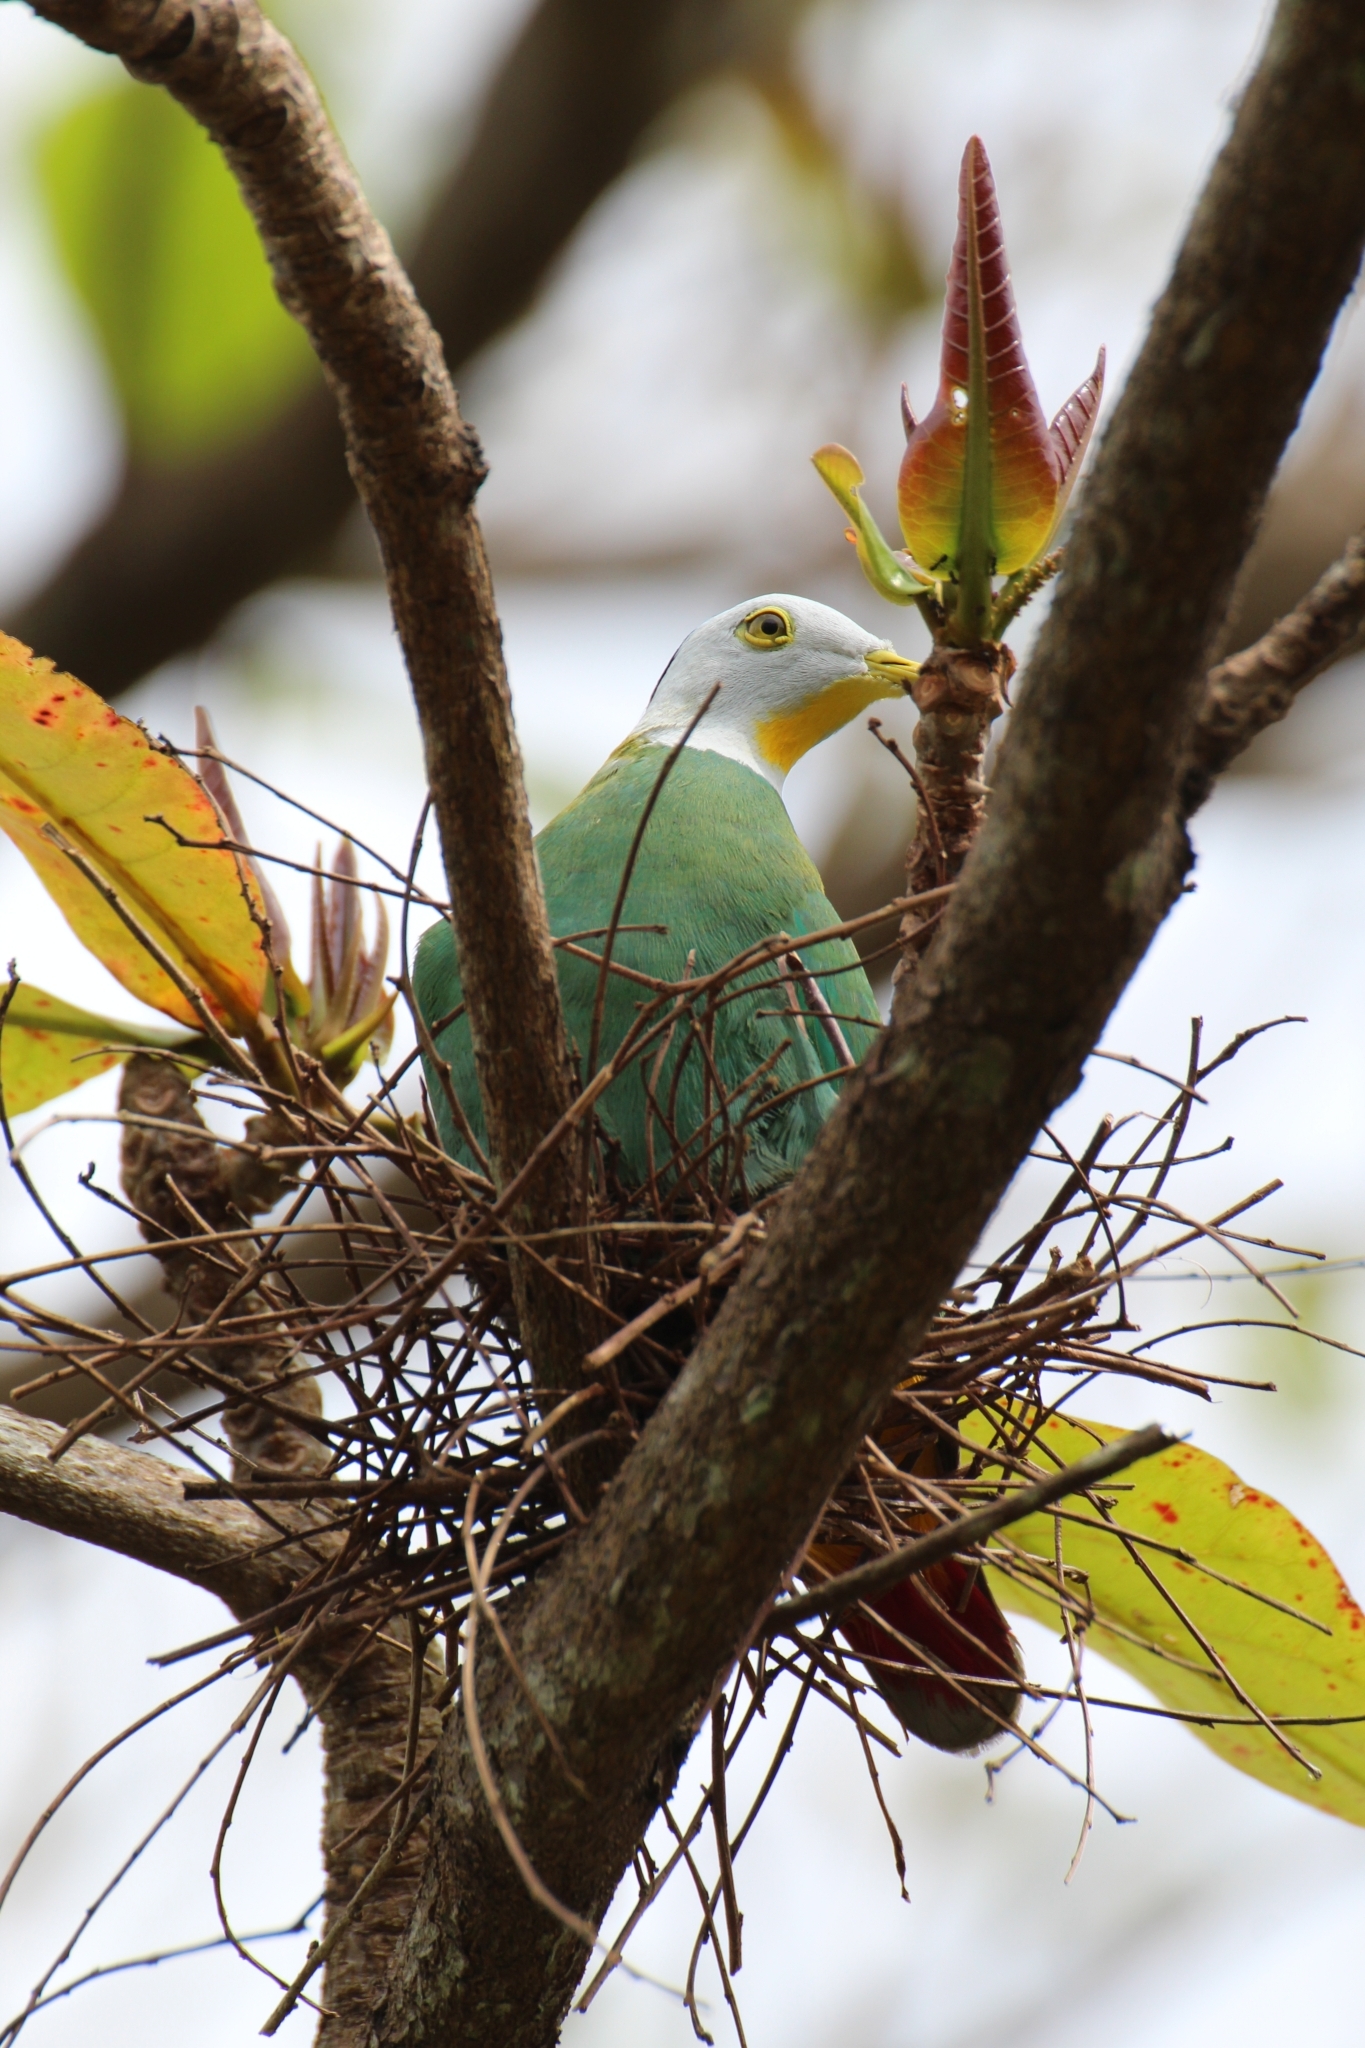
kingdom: Animalia
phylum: Chordata
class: Aves
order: Columbiformes
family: Columbidae
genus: Ptilinopus
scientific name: Ptilinopus melanospilus
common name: Black-naped fruit dove
